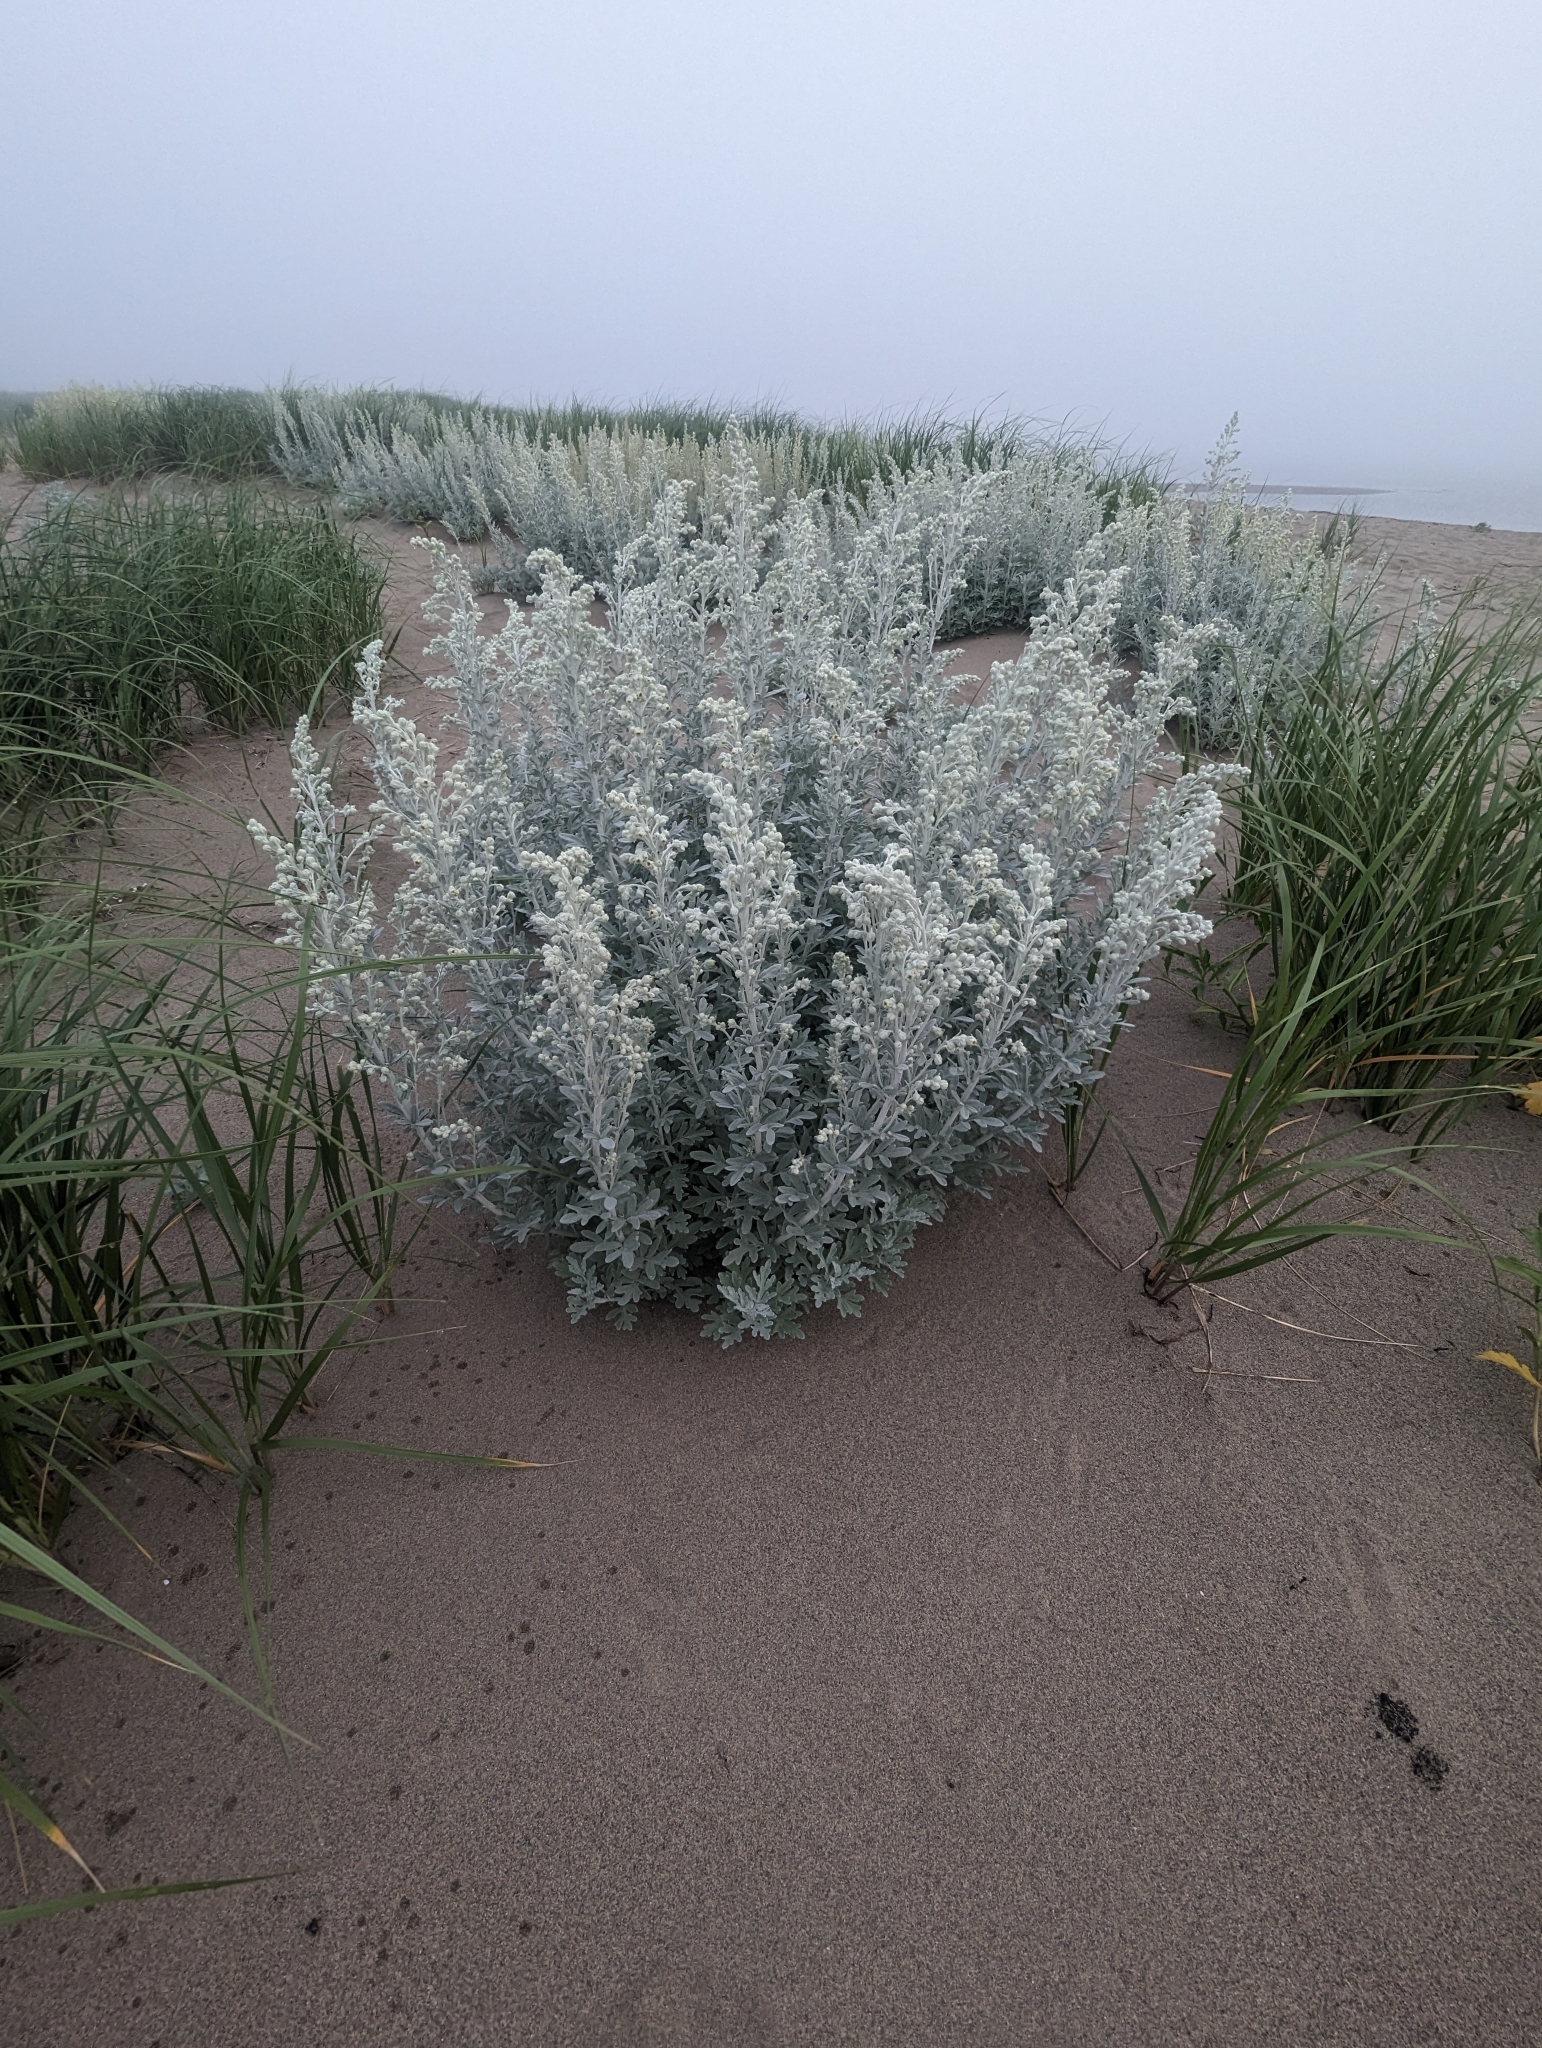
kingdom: Plantae
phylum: Tracheophyta
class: Magnoliopsida
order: Asterales
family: Asteraceae
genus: Artemisia
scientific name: Artemisia stelleriana
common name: Beach wormwood
